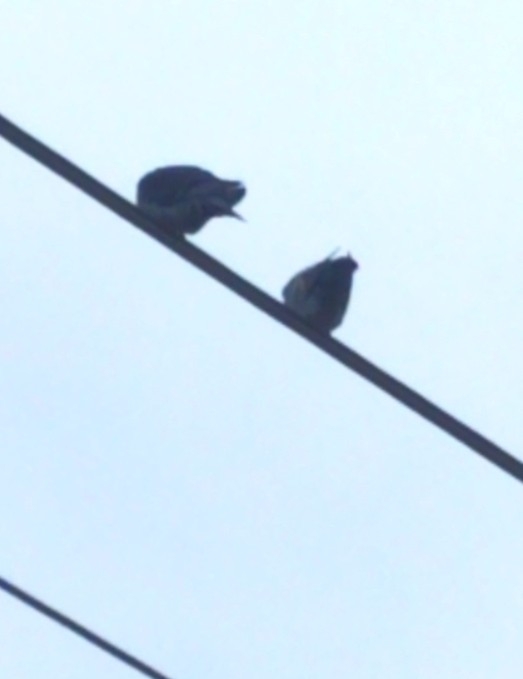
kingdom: Animalia
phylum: Chordata
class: Aves
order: Columbiformes
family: Columbidae
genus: Columba
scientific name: Columba livia
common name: Rock pigeon
